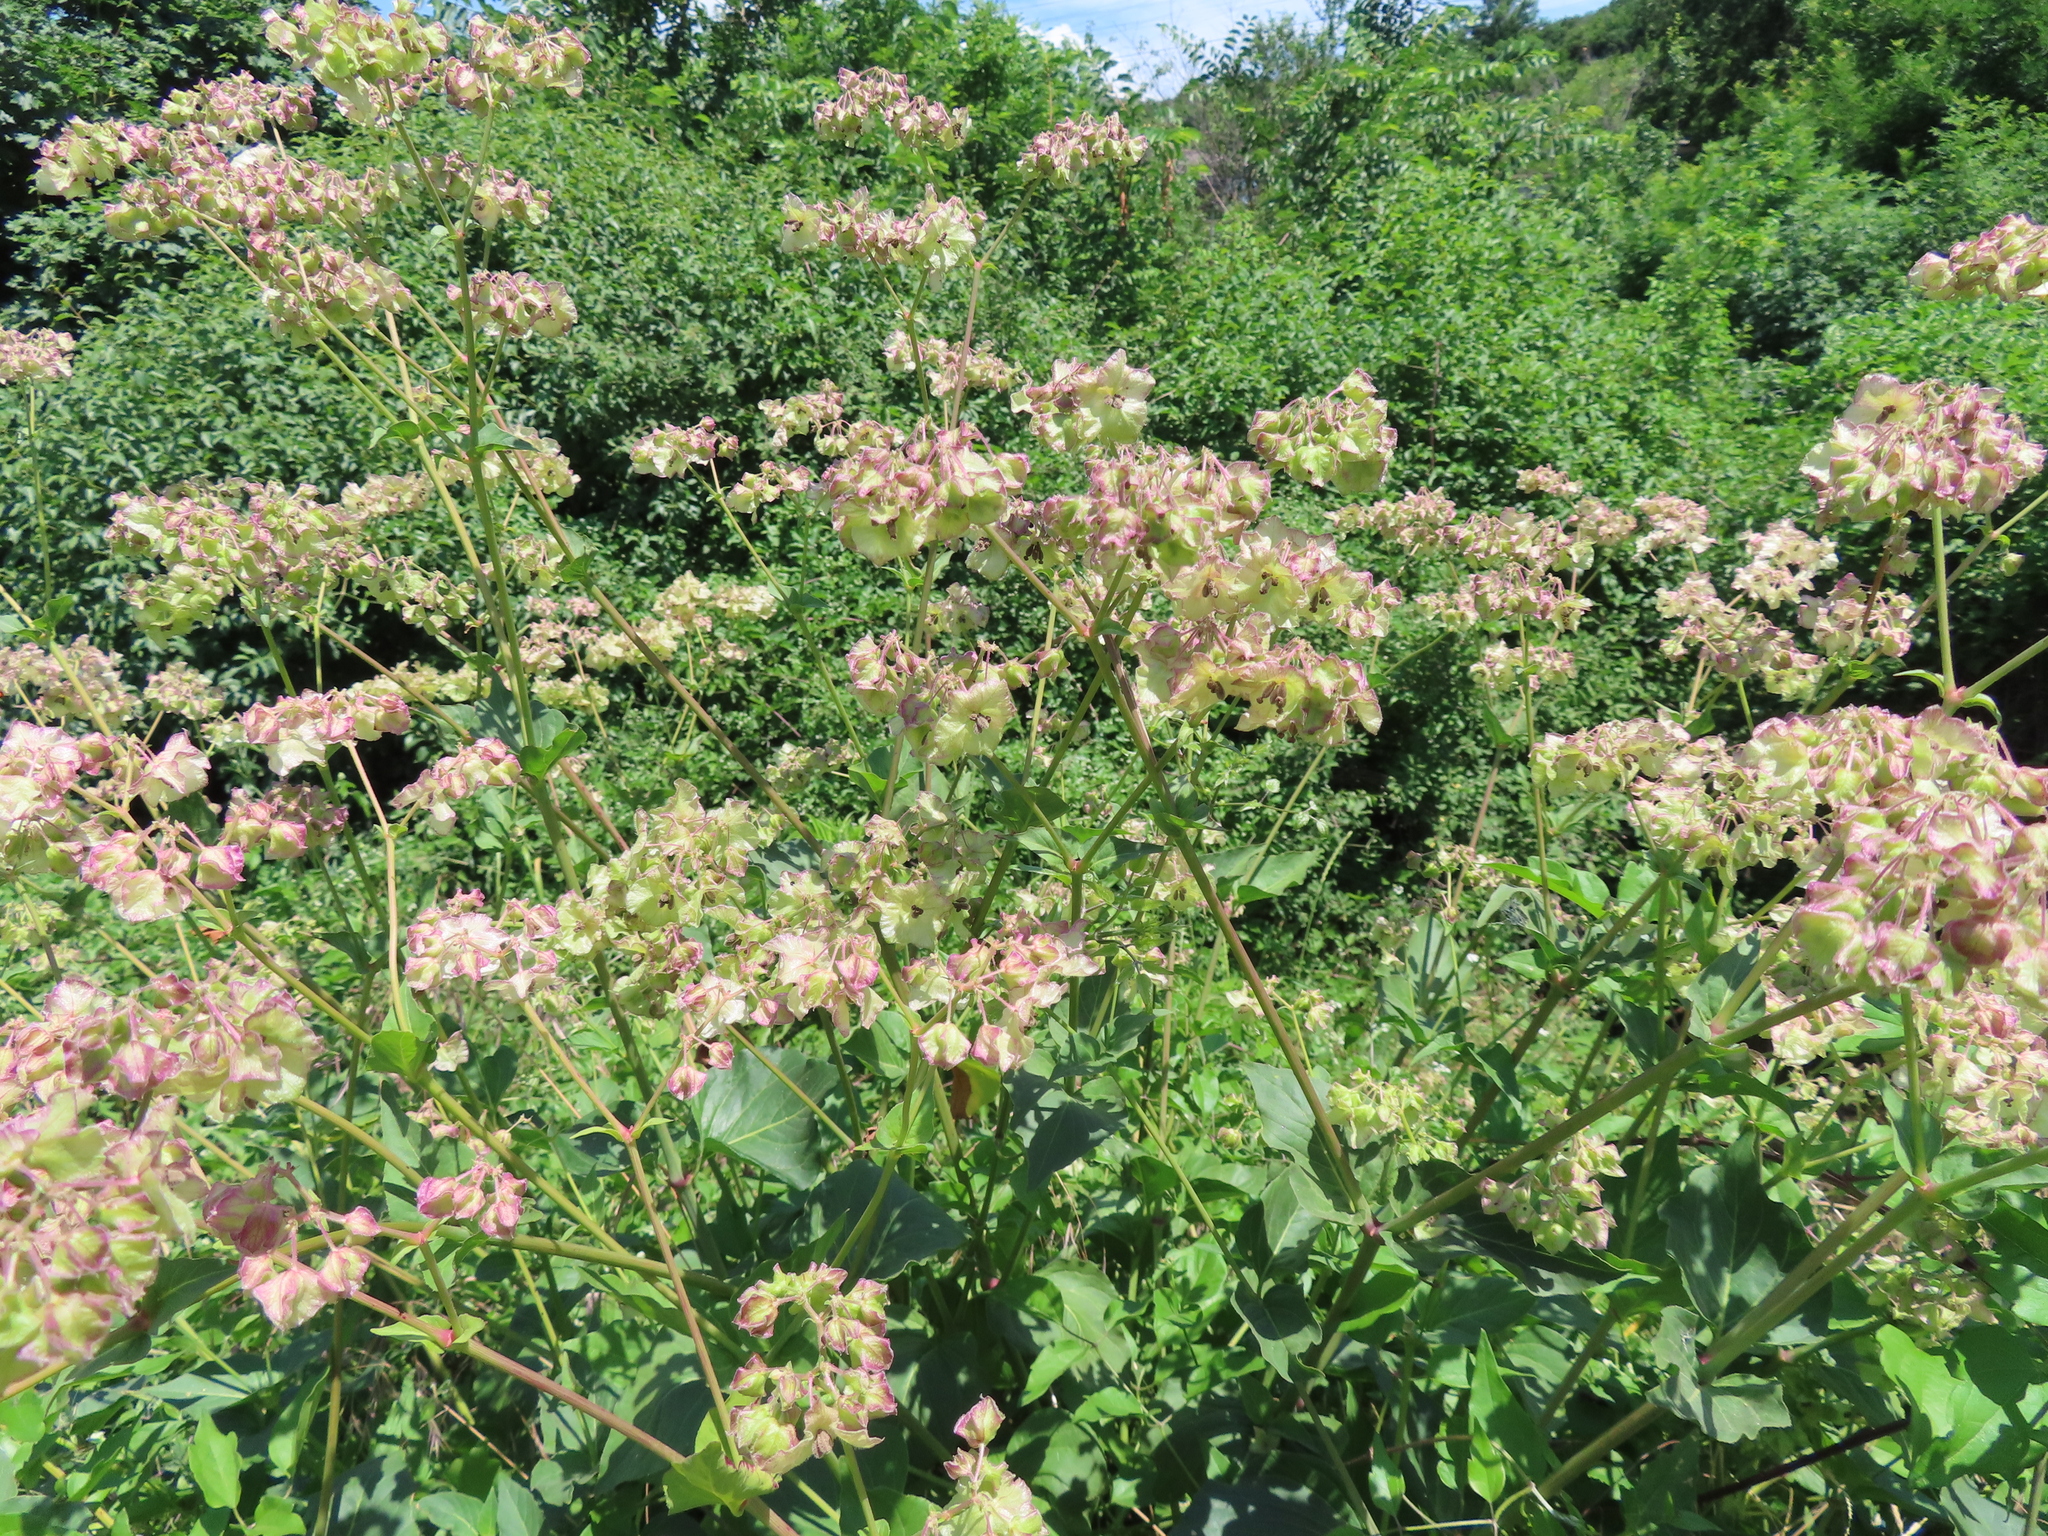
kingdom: Plantae
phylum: Tracheophyta
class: Magnoliopsida
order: Caryophyllales
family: Nyctaginaceae
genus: Mirabilis
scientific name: Mirabilis nyctaginea
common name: Umbrella wort
